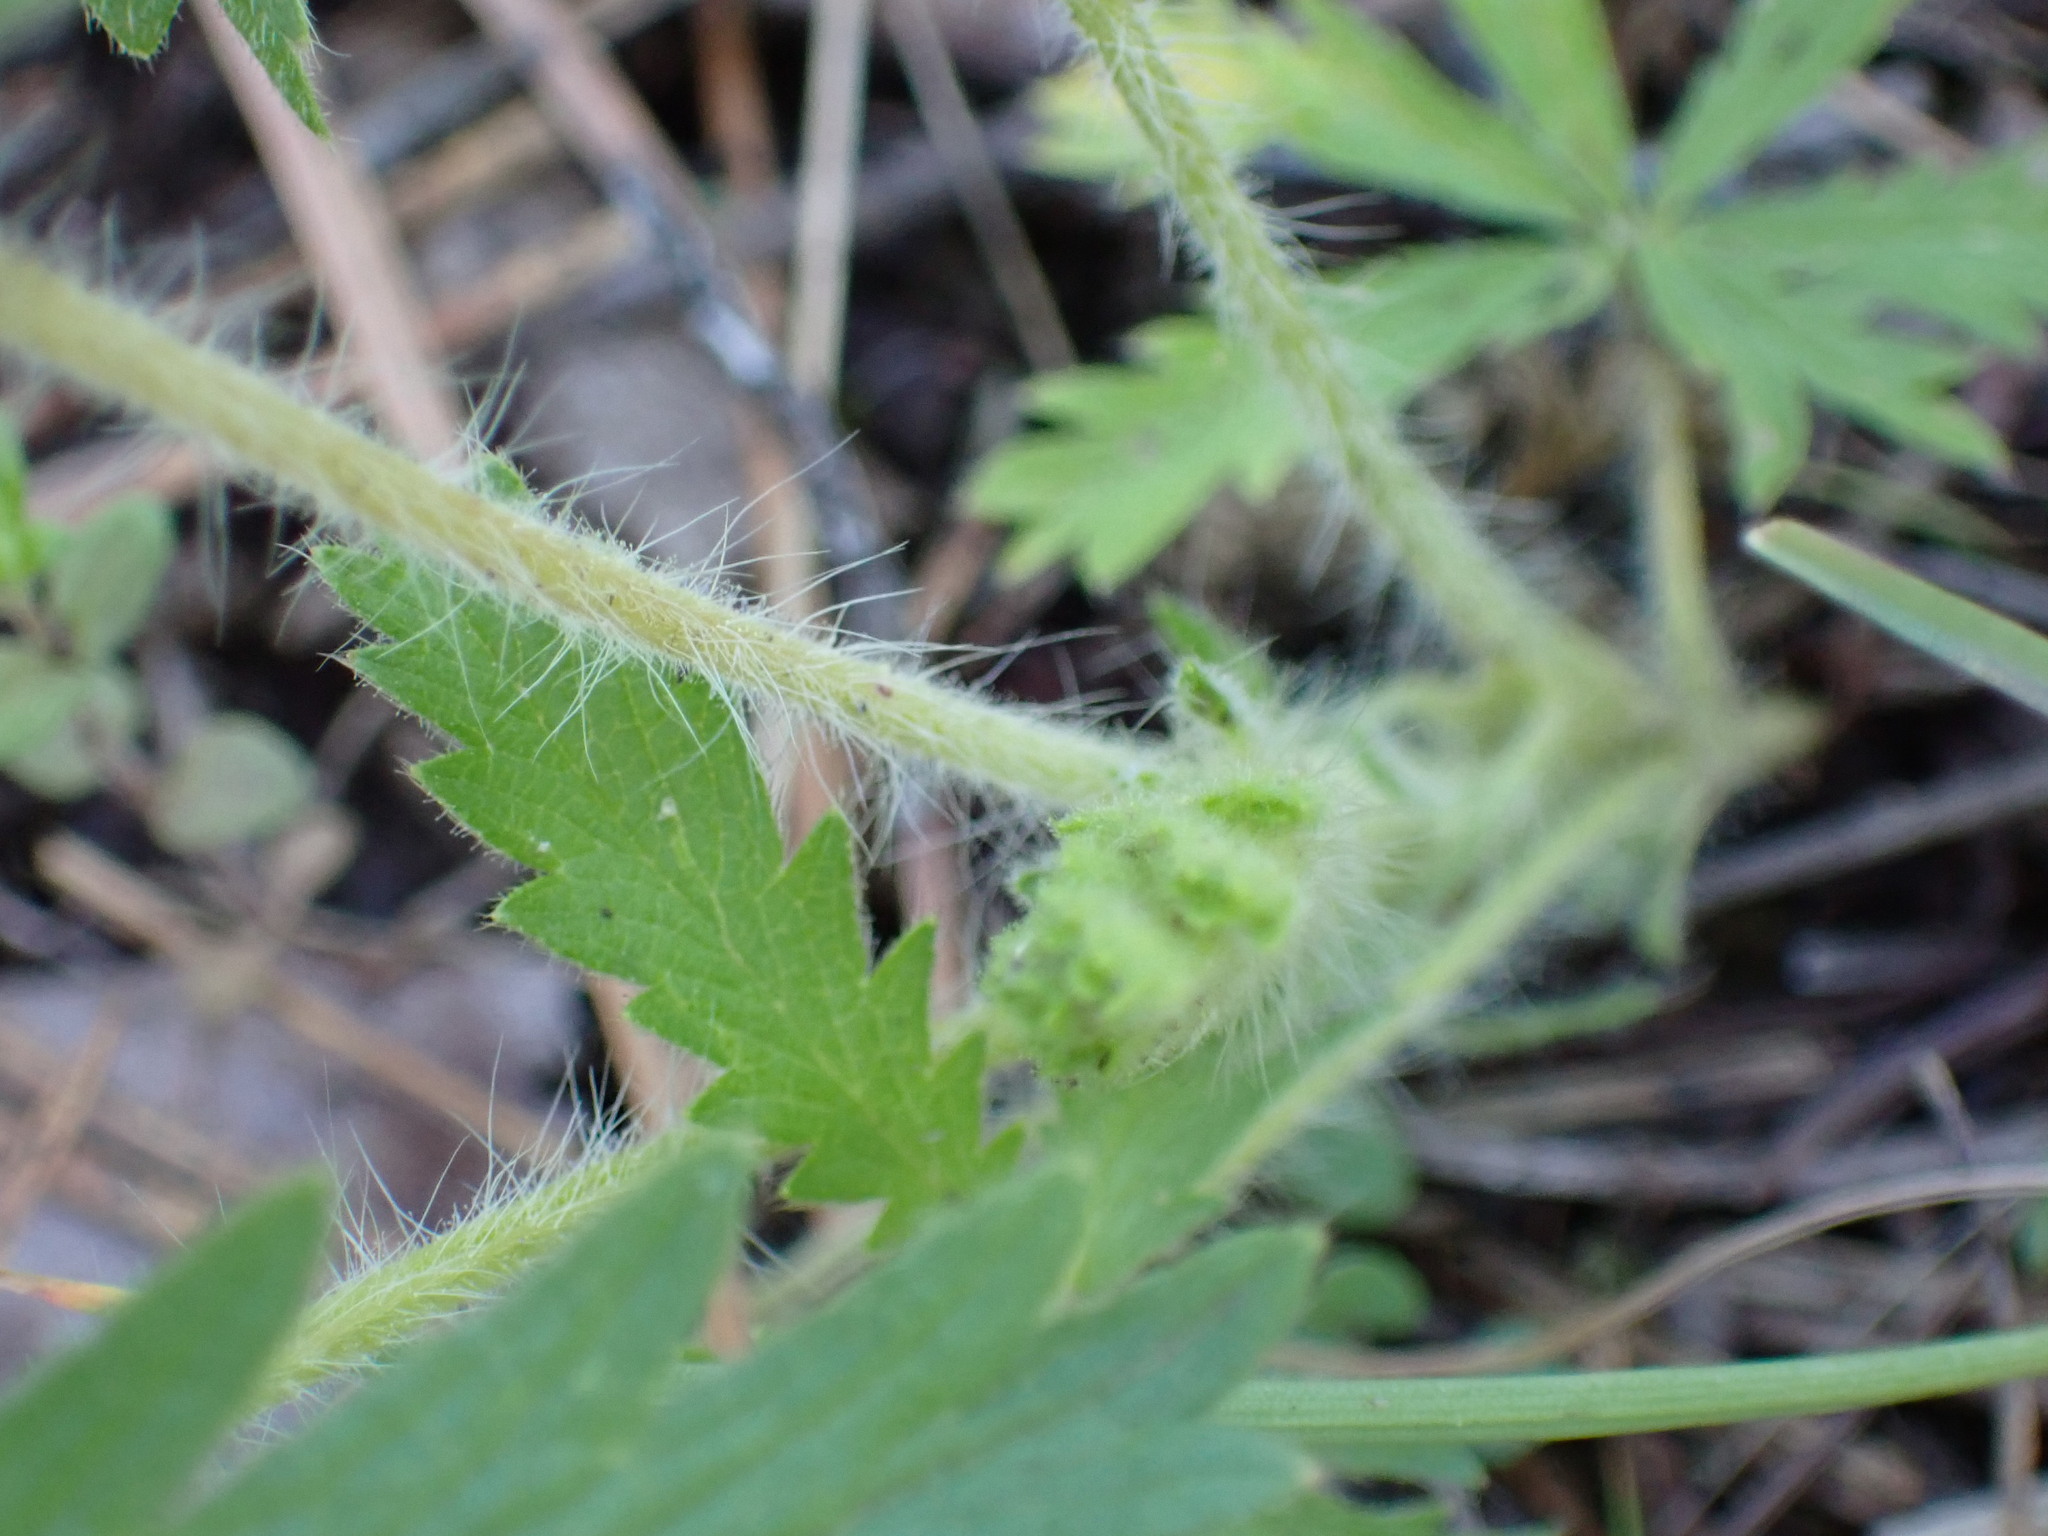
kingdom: Plantae
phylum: Tracheophyta
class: Magnoliopsida
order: Rosales
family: Rosaceae
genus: Potentilla
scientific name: Potentilla recta
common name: Sulphur cinquefoil
